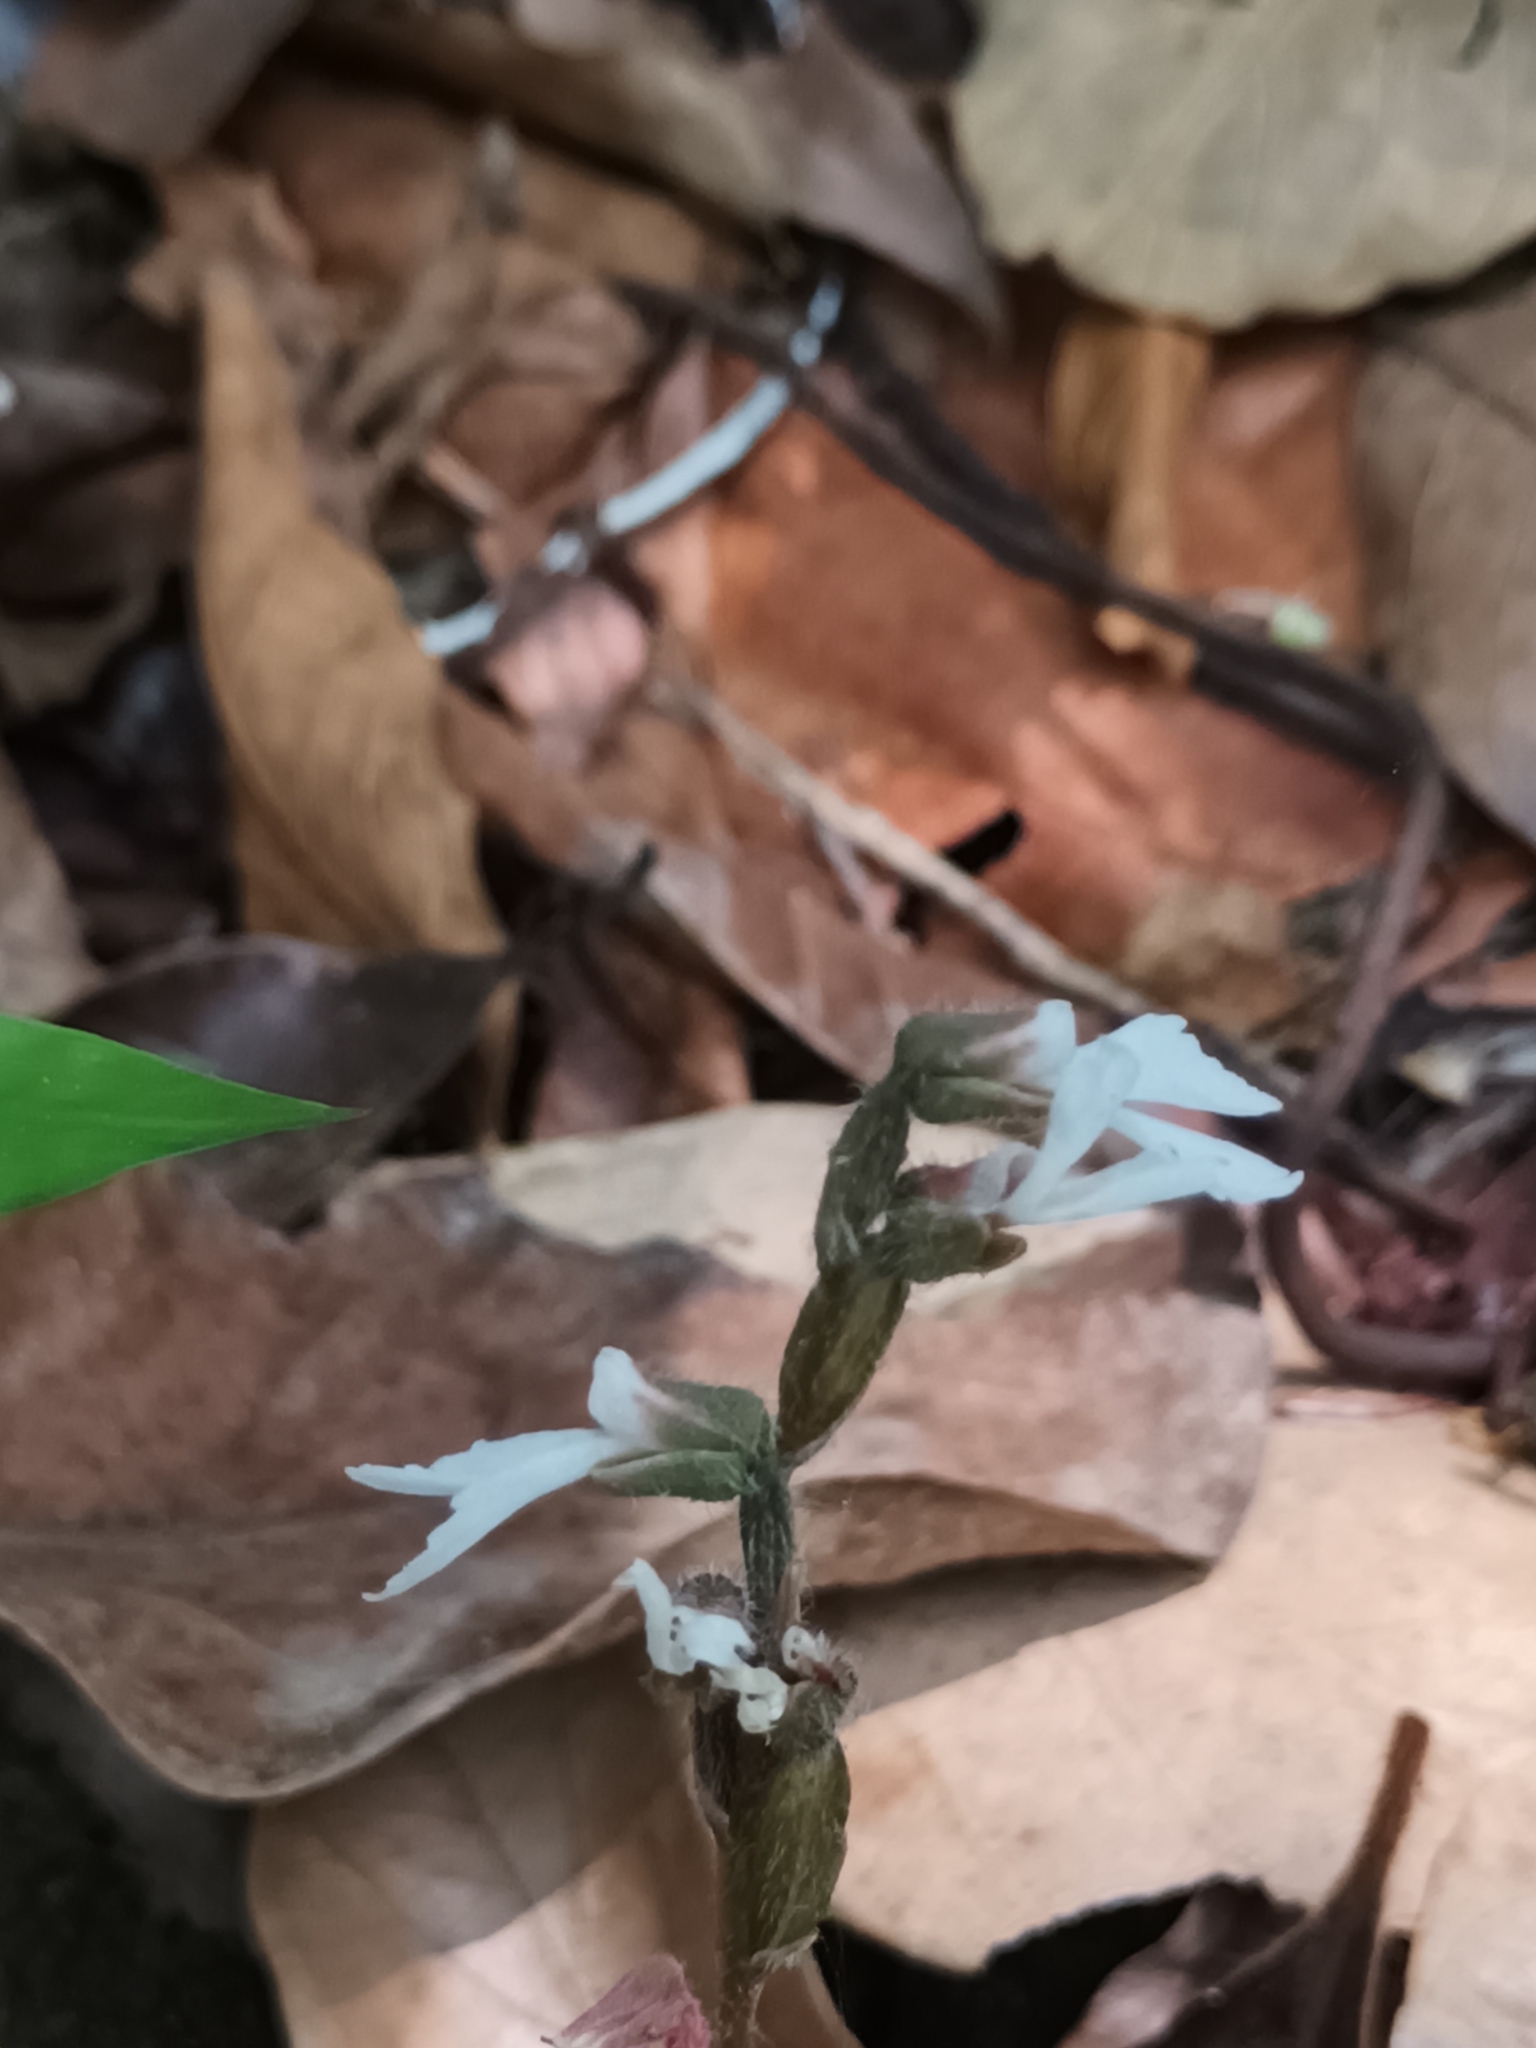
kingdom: Plantae
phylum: Tracheophyta
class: Liliopsida
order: Asparagales
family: Orchidaceae
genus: Zeuxine
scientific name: Zeuxine longilabris
